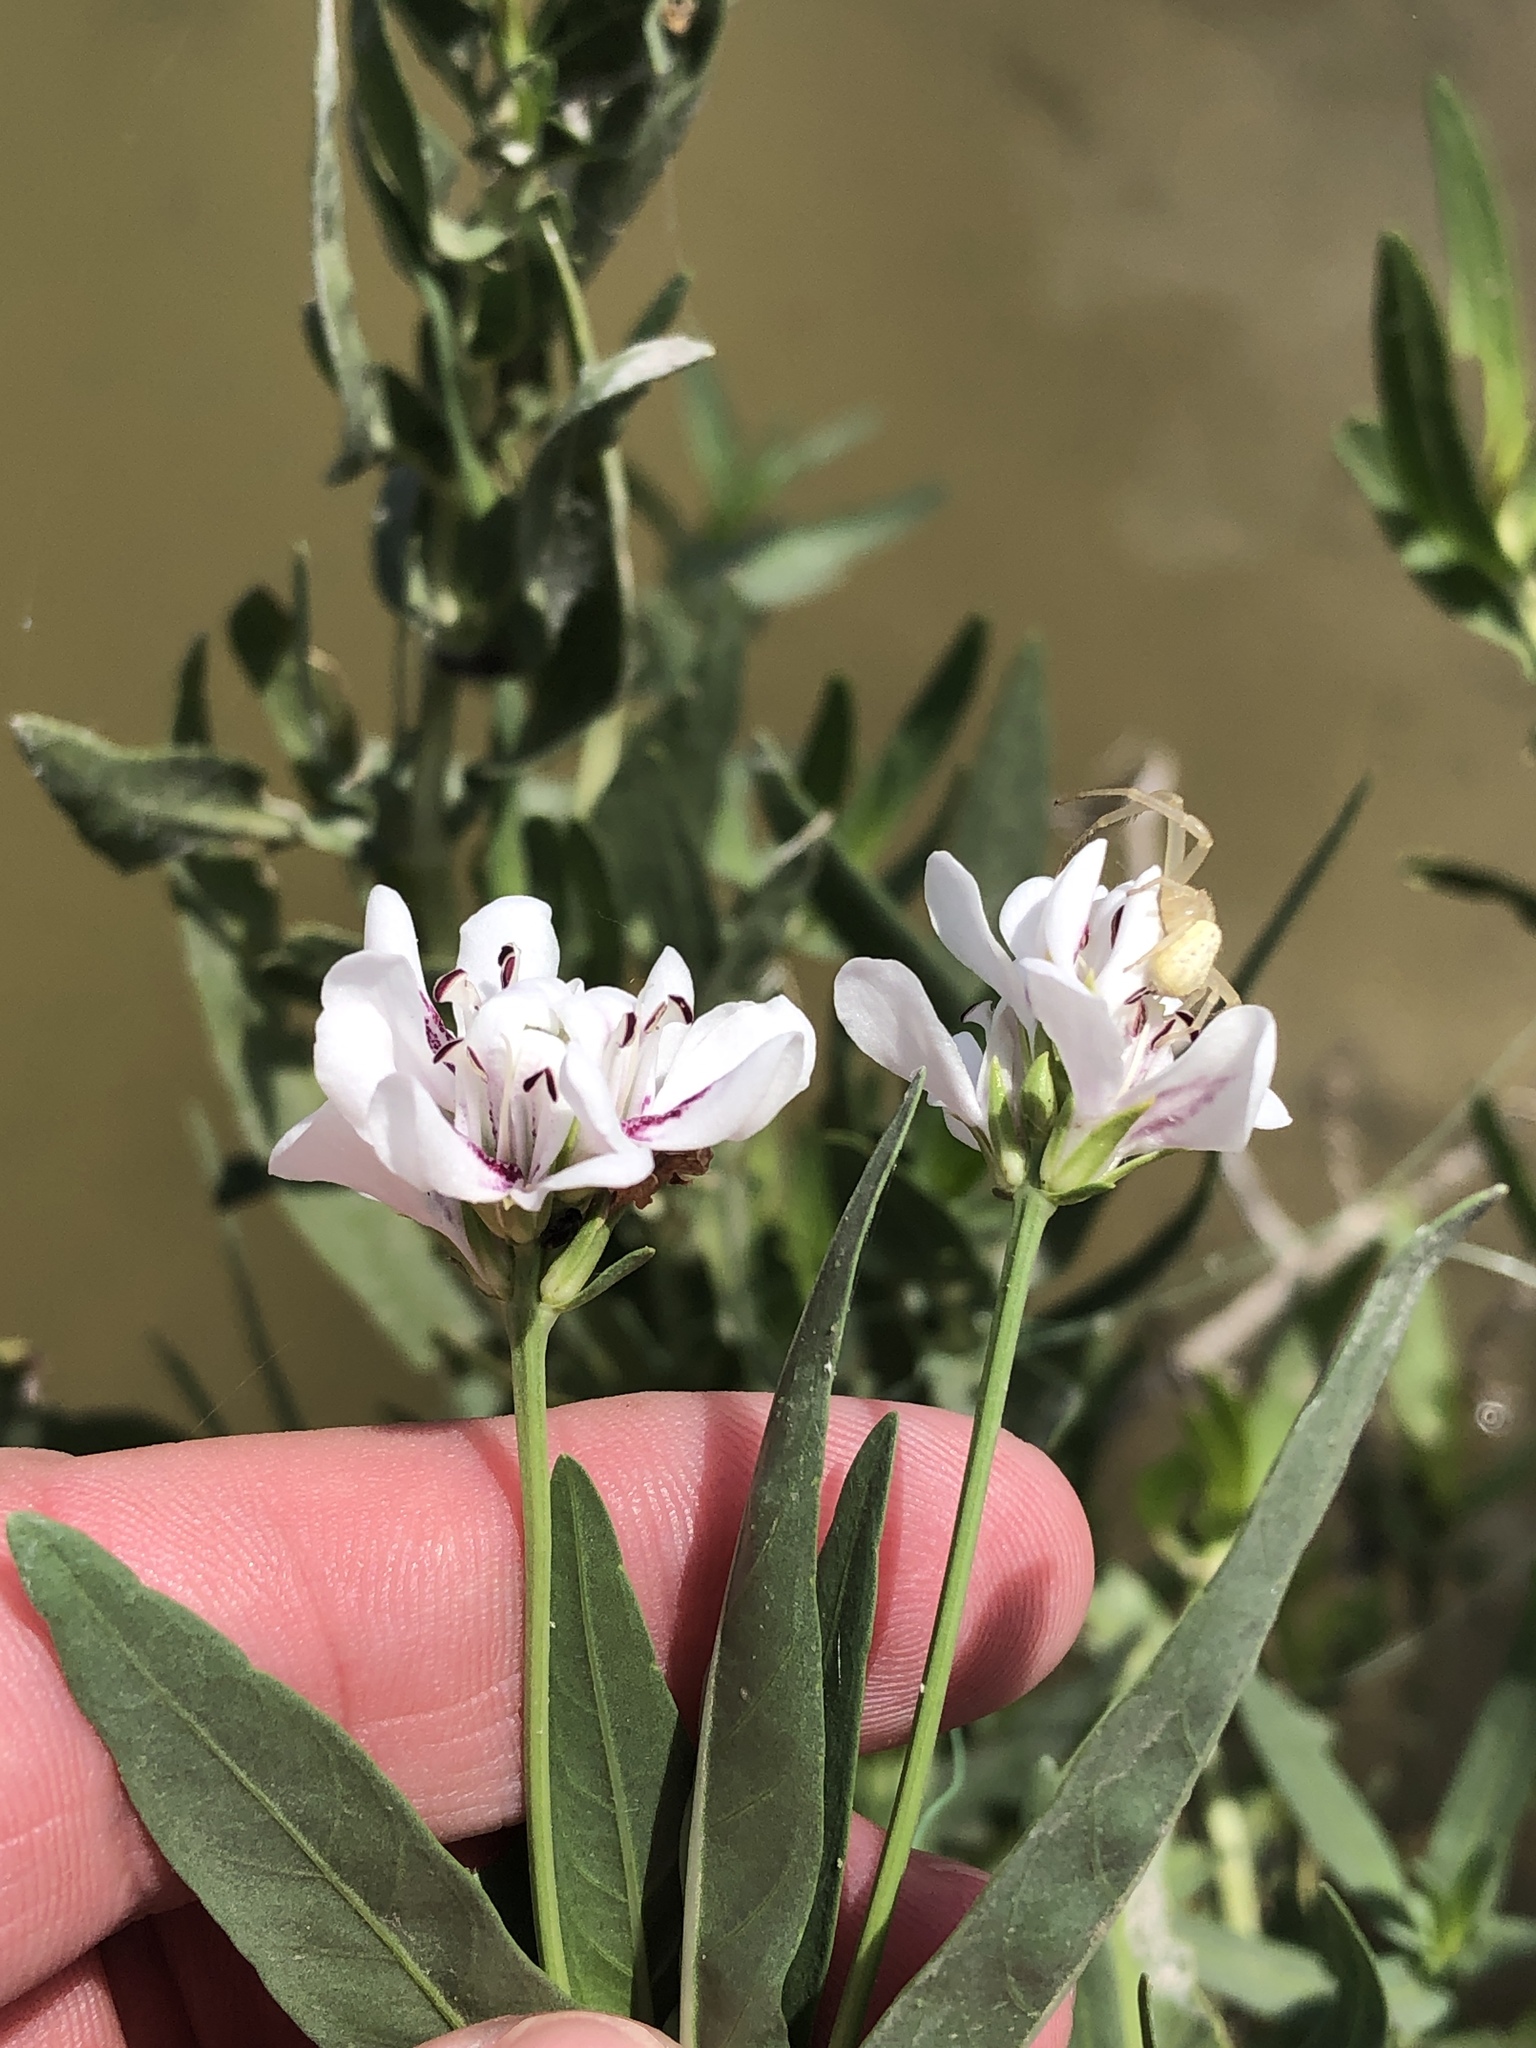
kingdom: Plantae
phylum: Tracheophyta
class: Magnoliopsida
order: Lamiales
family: Acanthaceae
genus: Dianthera
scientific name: Dianthera americana
